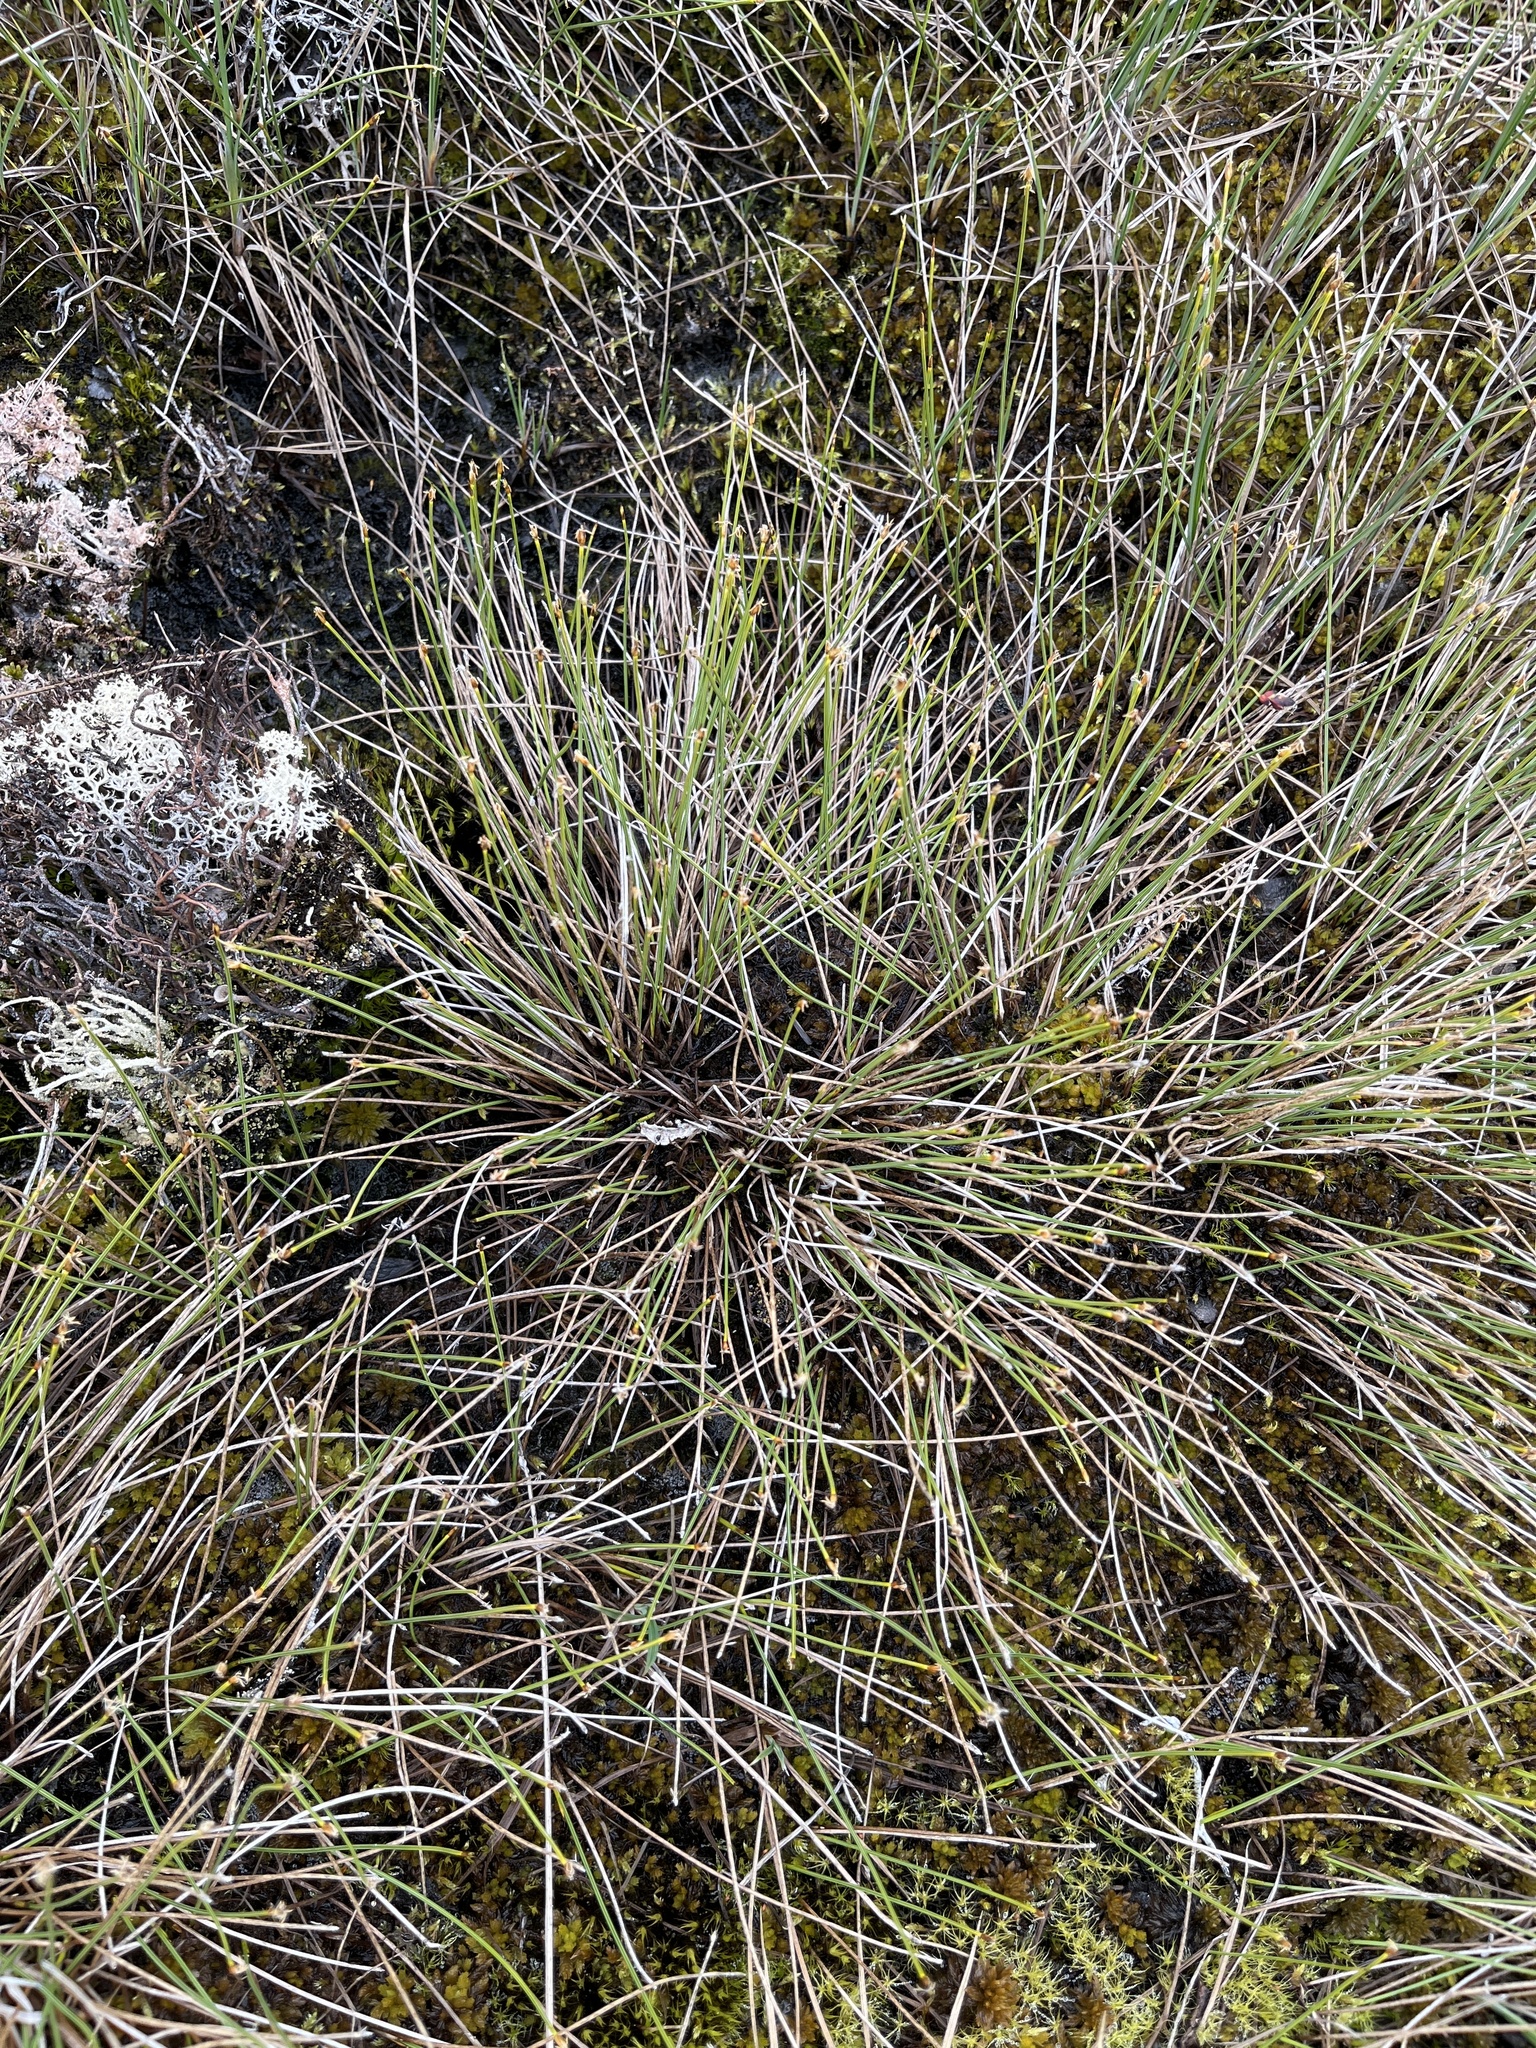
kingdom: Plantae
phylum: Tracheophyta
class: Liliopsida
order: Poales
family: Cyperaceae
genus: Trichophorum
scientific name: Trichophorum cespitosum
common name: Cespitose bulrush
